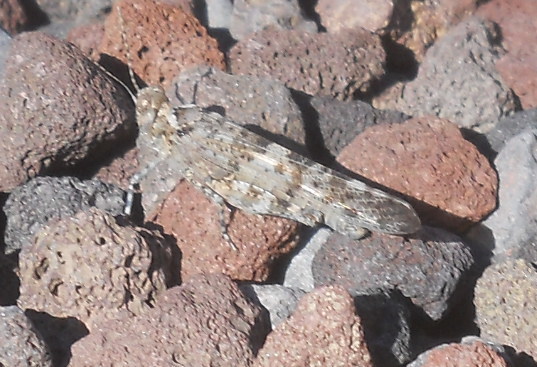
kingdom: Animalia
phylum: Arthropoda
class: Insecta
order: Orthoptera
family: Acrididae
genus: Sphingonotus
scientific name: Sphingonotus rubescens
